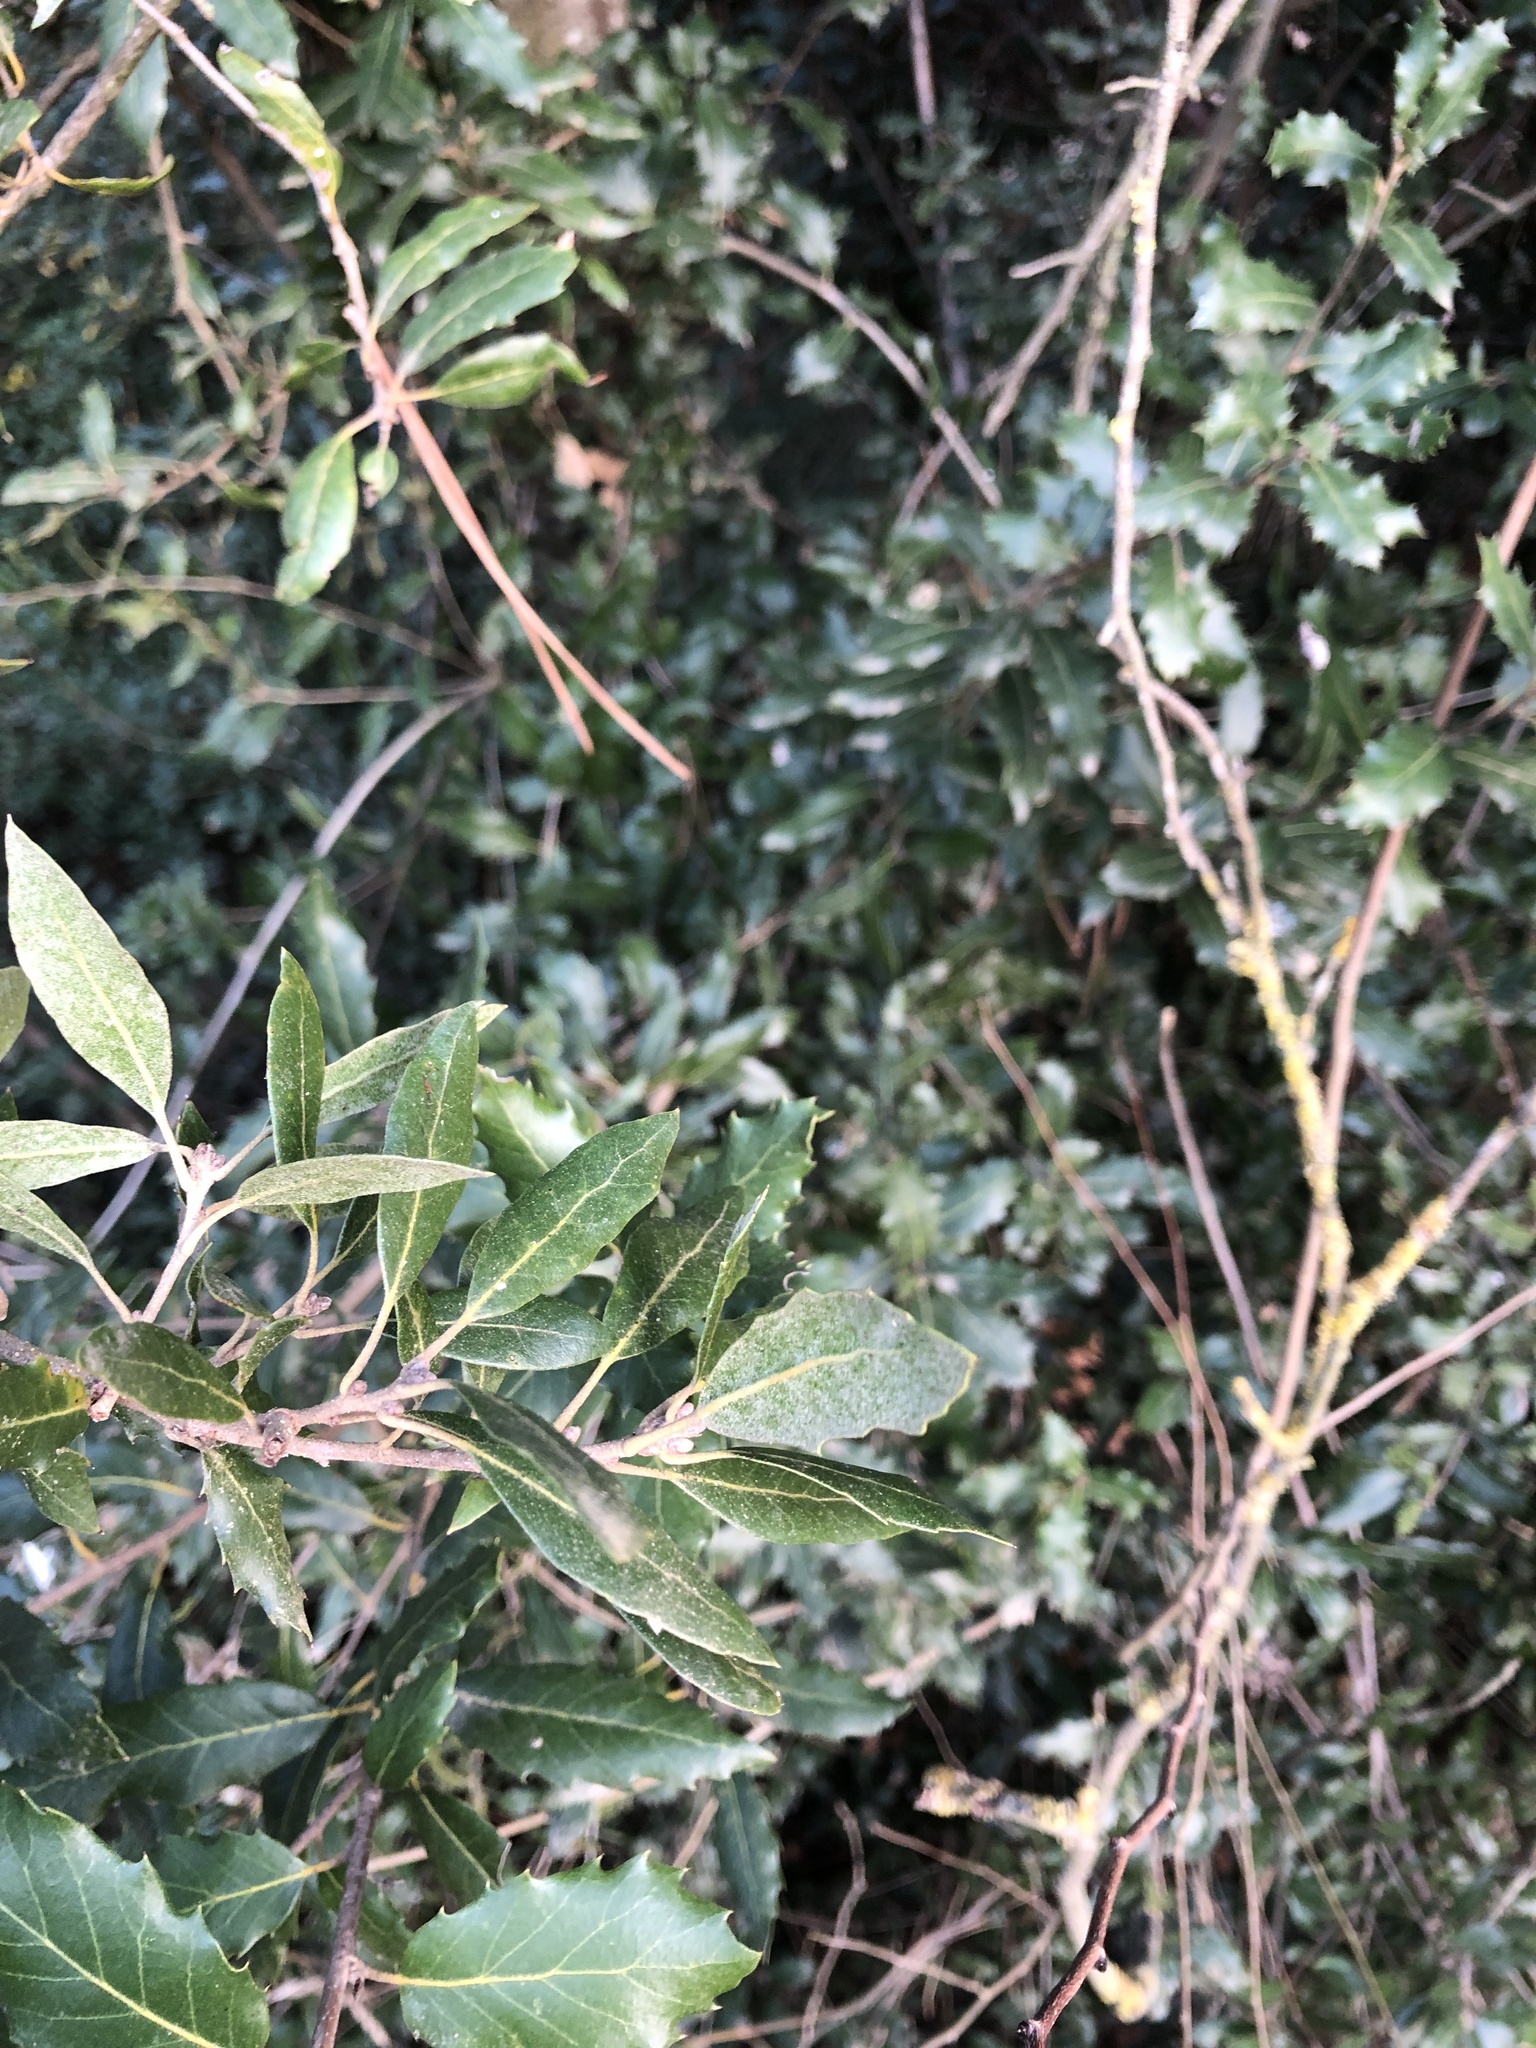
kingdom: Plantae
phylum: Tracheophyta
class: Magnoliopsida
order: Fagales
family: Fagaceae
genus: Quercus
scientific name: Quercus ilex
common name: Evergreen oak
